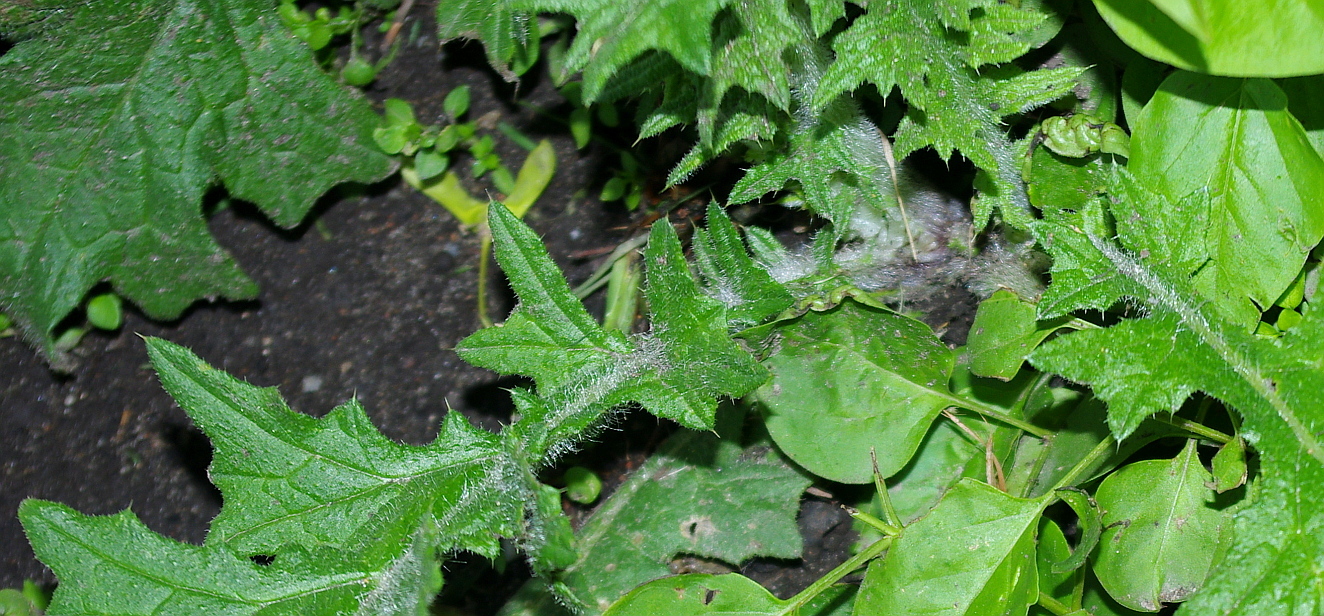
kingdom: Plantae
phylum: Tracheophyta
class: Magnoliopsida
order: Asterales
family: Asteraceae
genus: Cirsium
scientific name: Cirsium vulgare
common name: Bull thistle
